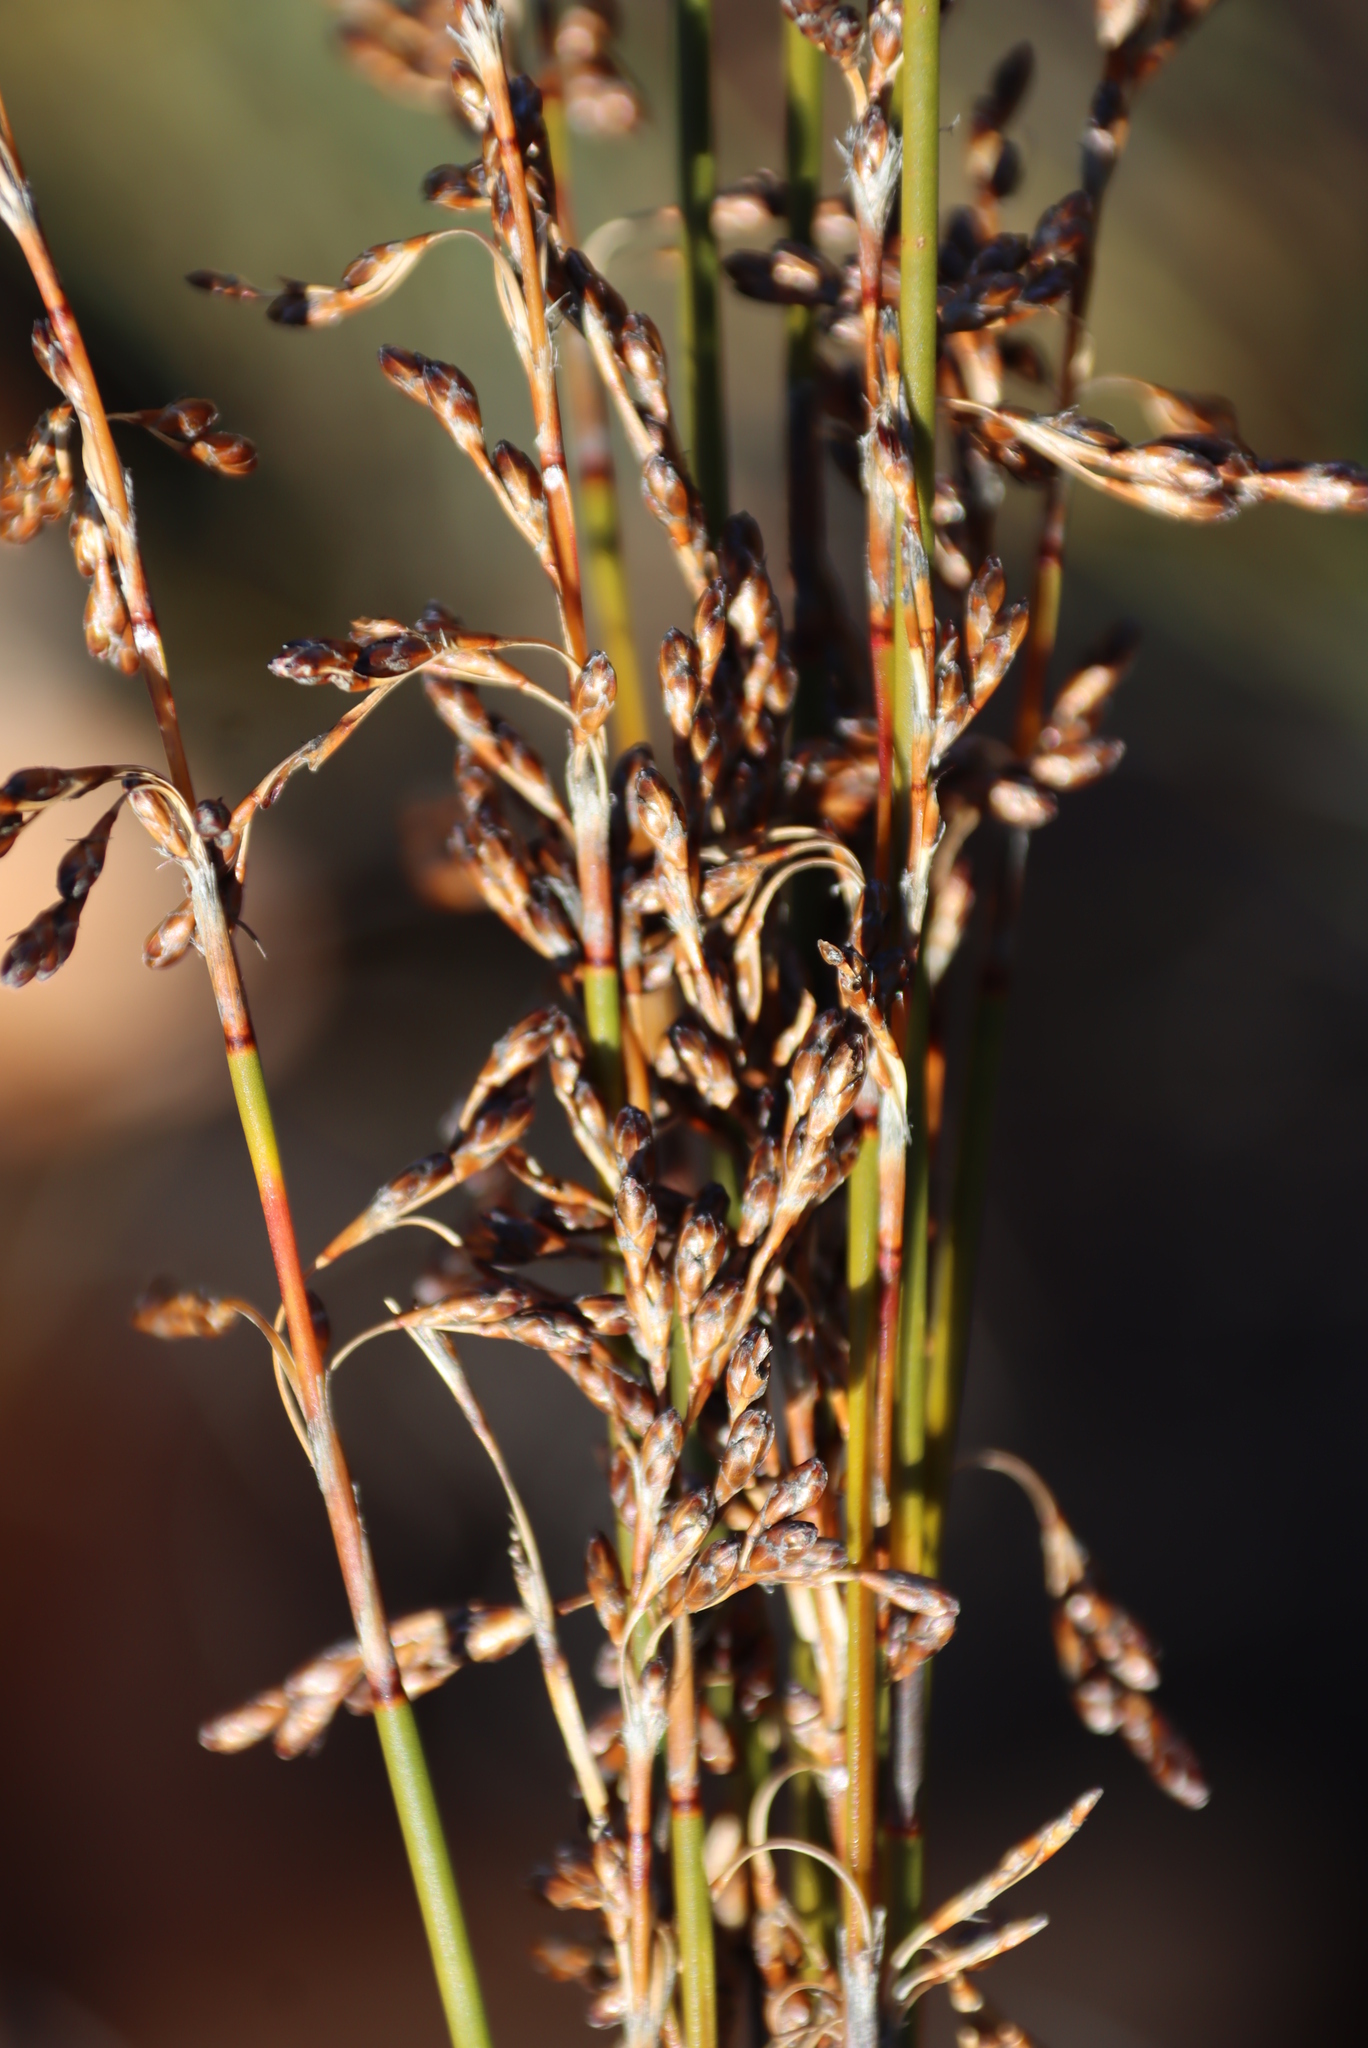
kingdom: Plantae
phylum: Tracheophyta
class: Liliopsida
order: Poales
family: Restionaceae
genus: Rhodocoma
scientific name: Rhodocoma fruticosa
